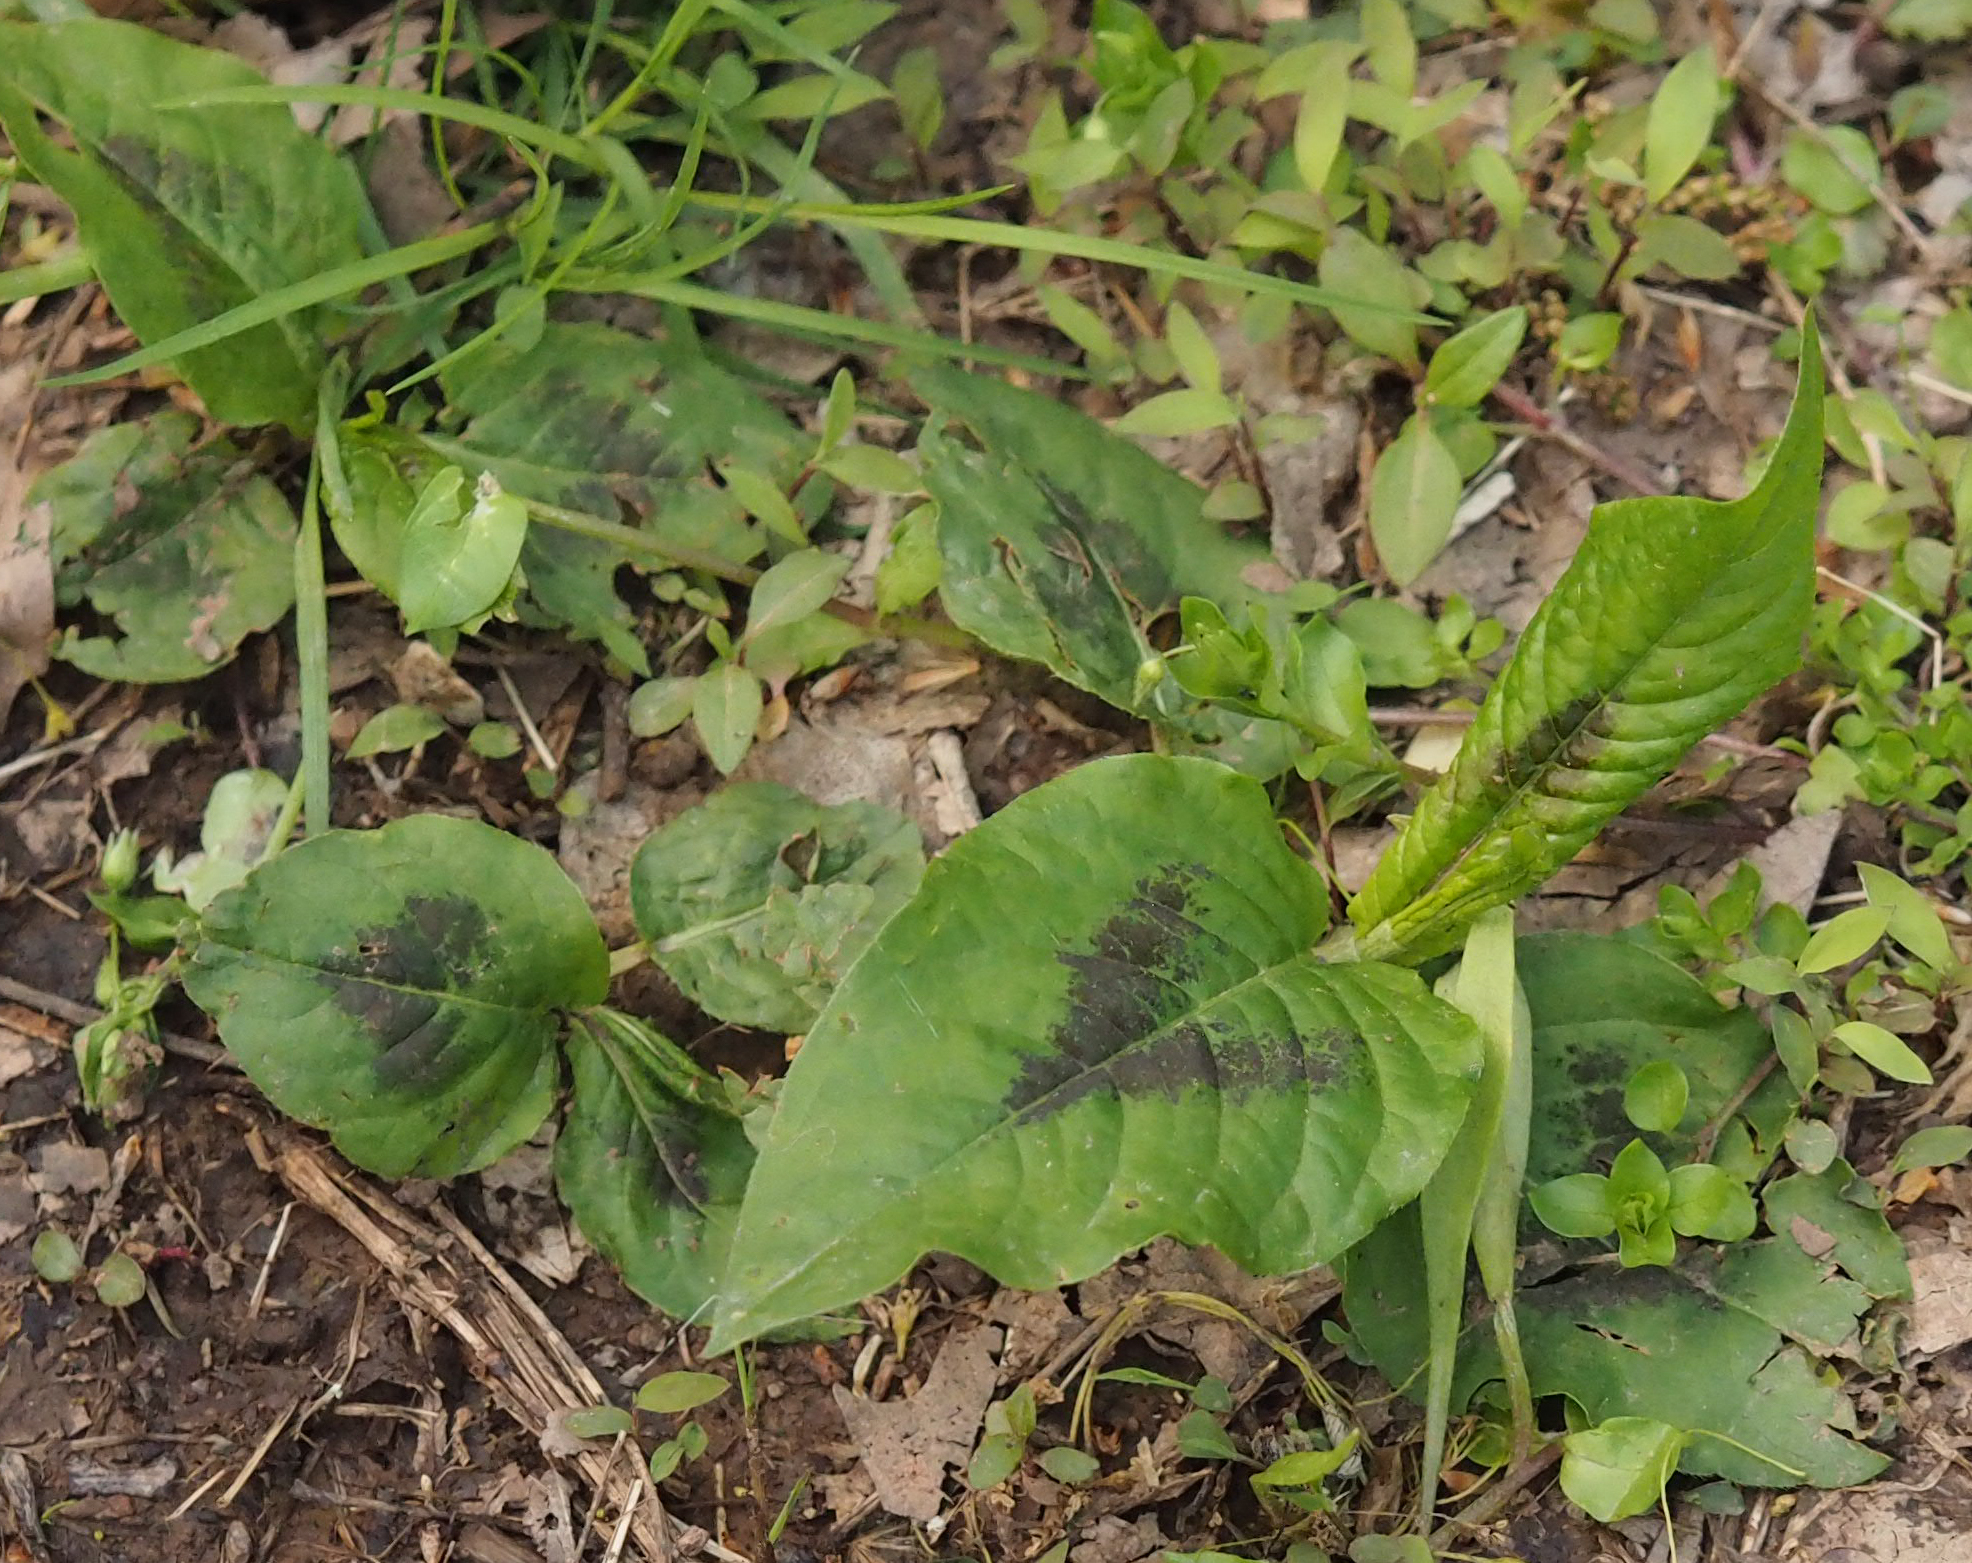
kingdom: Plantae
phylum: Tracheophyta
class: Magnoliopsida
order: Caryophyllales
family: Polygonaceae
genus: Persicaria
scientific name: Persicaria virginiana
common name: Jumpseed
